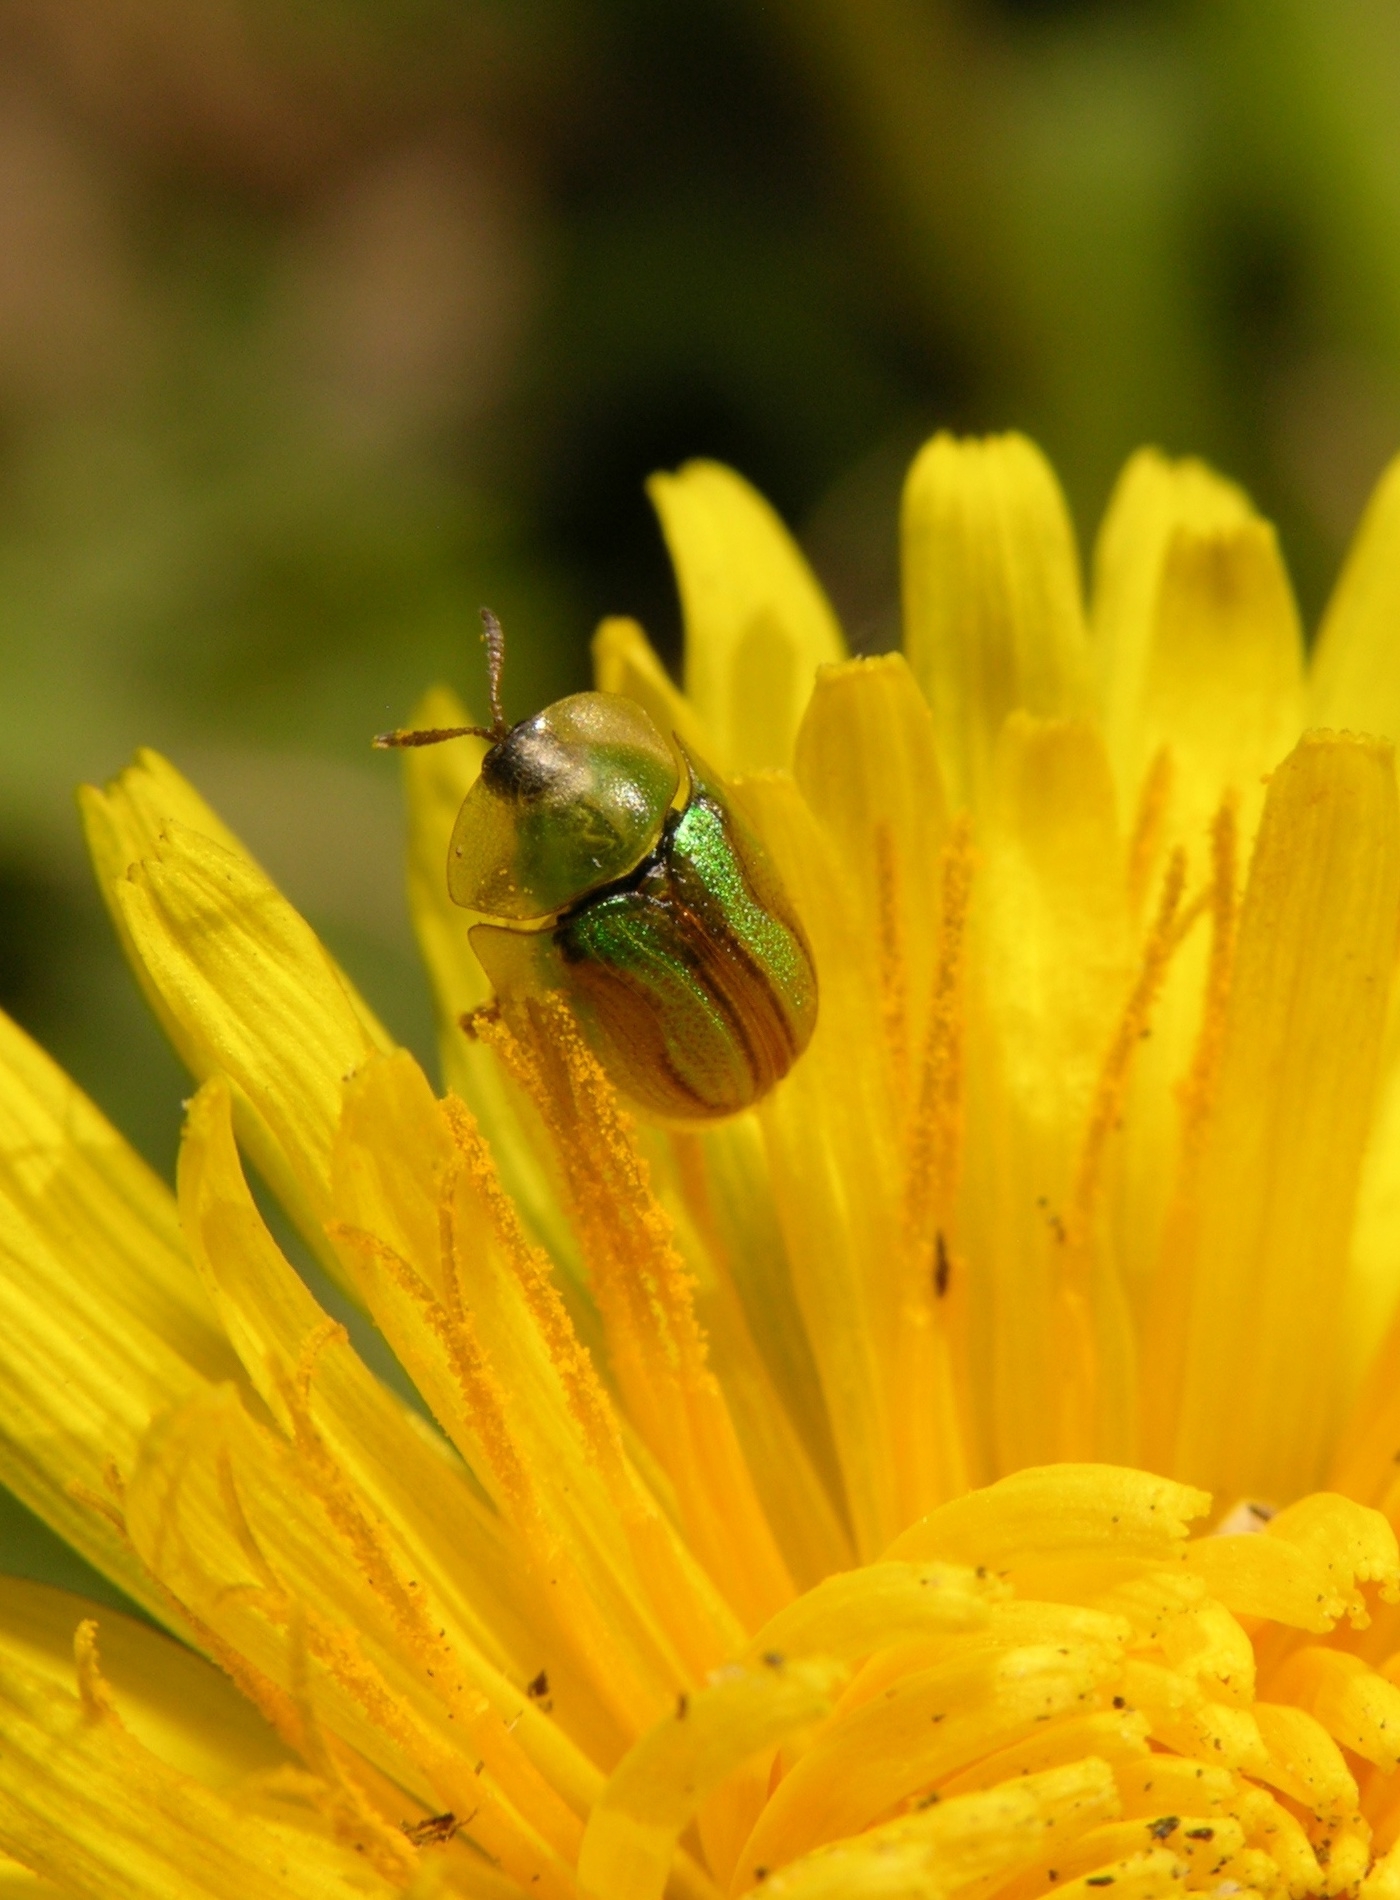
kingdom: Animalia
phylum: Arthropoda
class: Insecta
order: Coleoptera
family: Chrysomelidae
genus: Cassida
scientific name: Cassida vittata
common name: Bordered tortoise beetle
